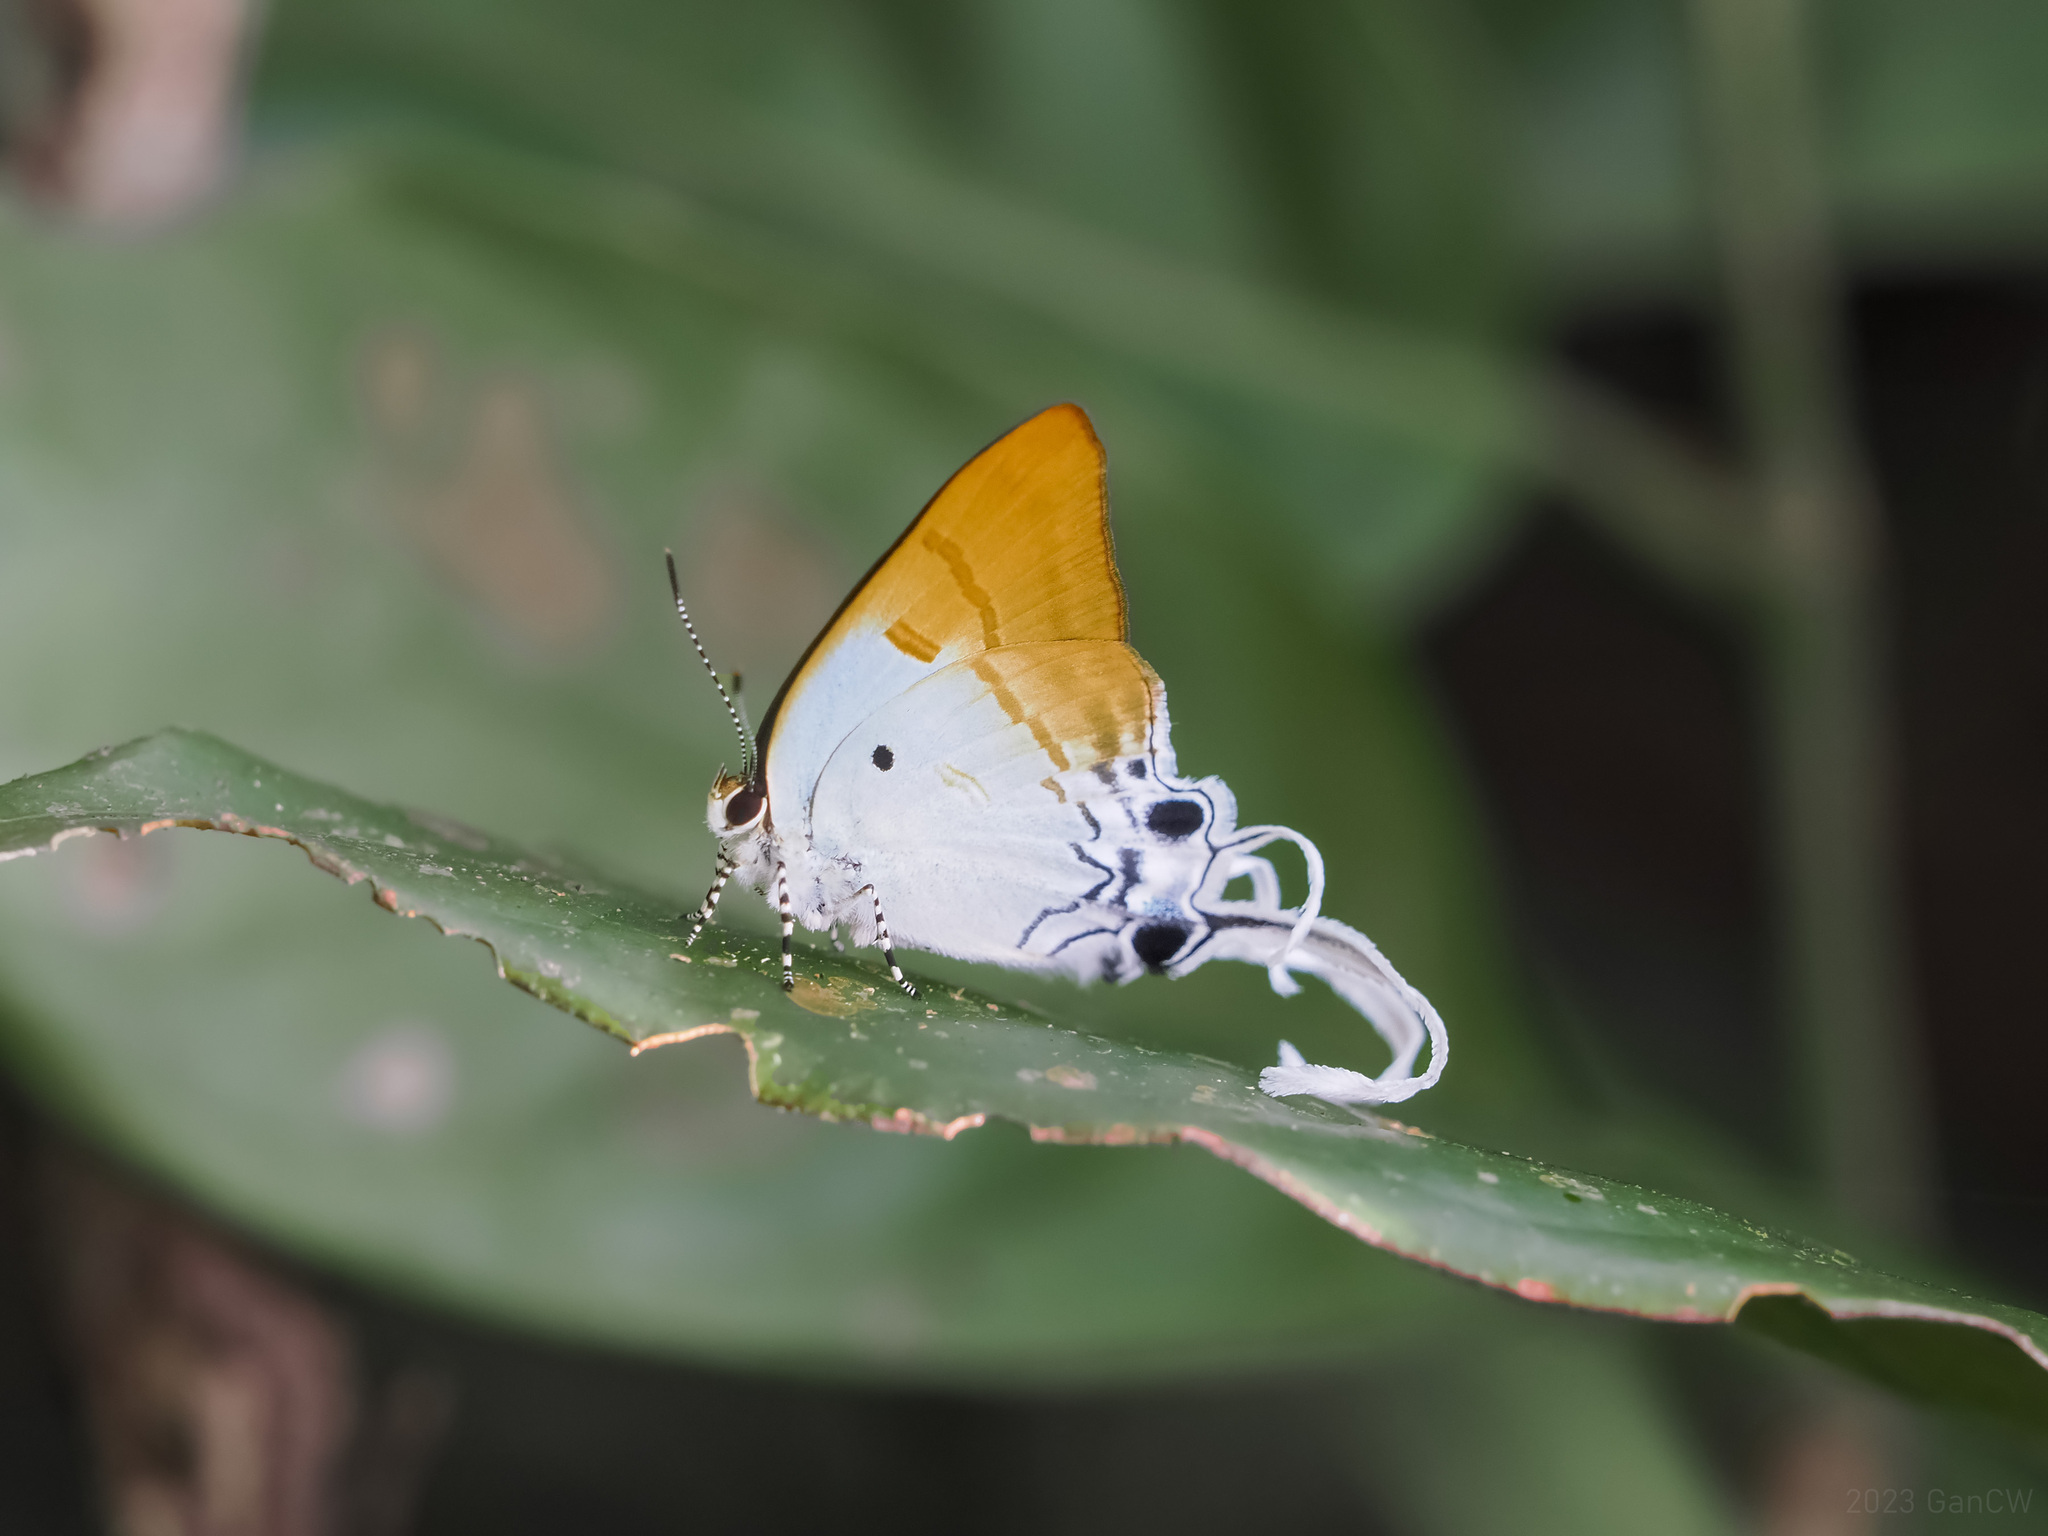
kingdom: Animalia
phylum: Arthropoda
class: Insecta
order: Lepidoptera
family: Lycaenidae
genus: Zeltus
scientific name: Zeltus amasa
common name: Fluffy tit
